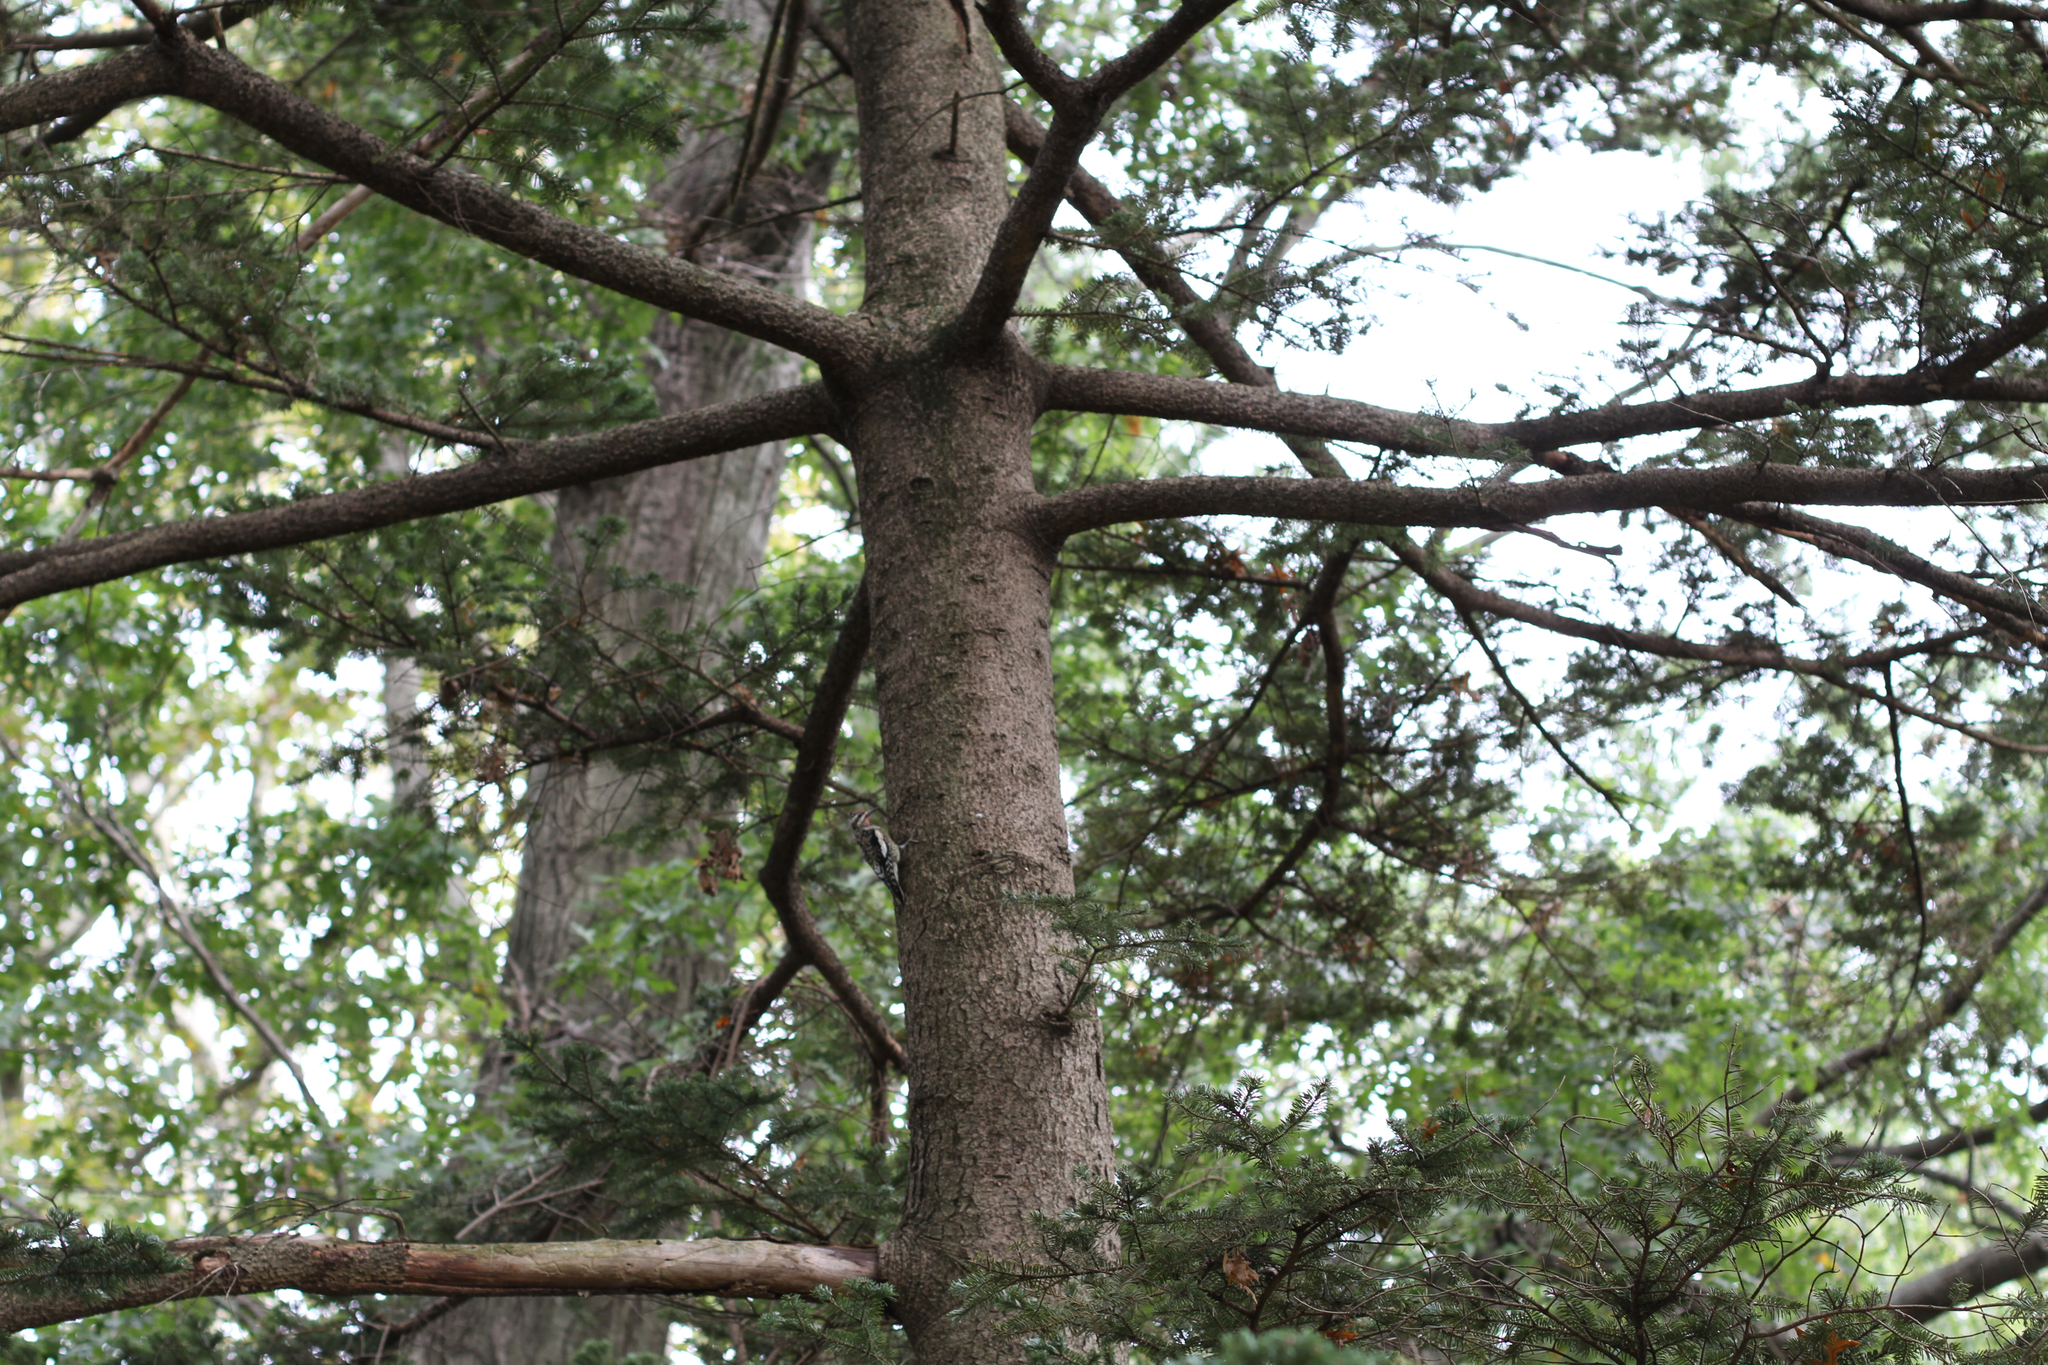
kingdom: Animalia
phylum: Chordata
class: Aves
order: Piciformes
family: Picidae
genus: Sphyrapicus
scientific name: Sphyrapicus varius
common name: Yellow-bellied sapsucker
